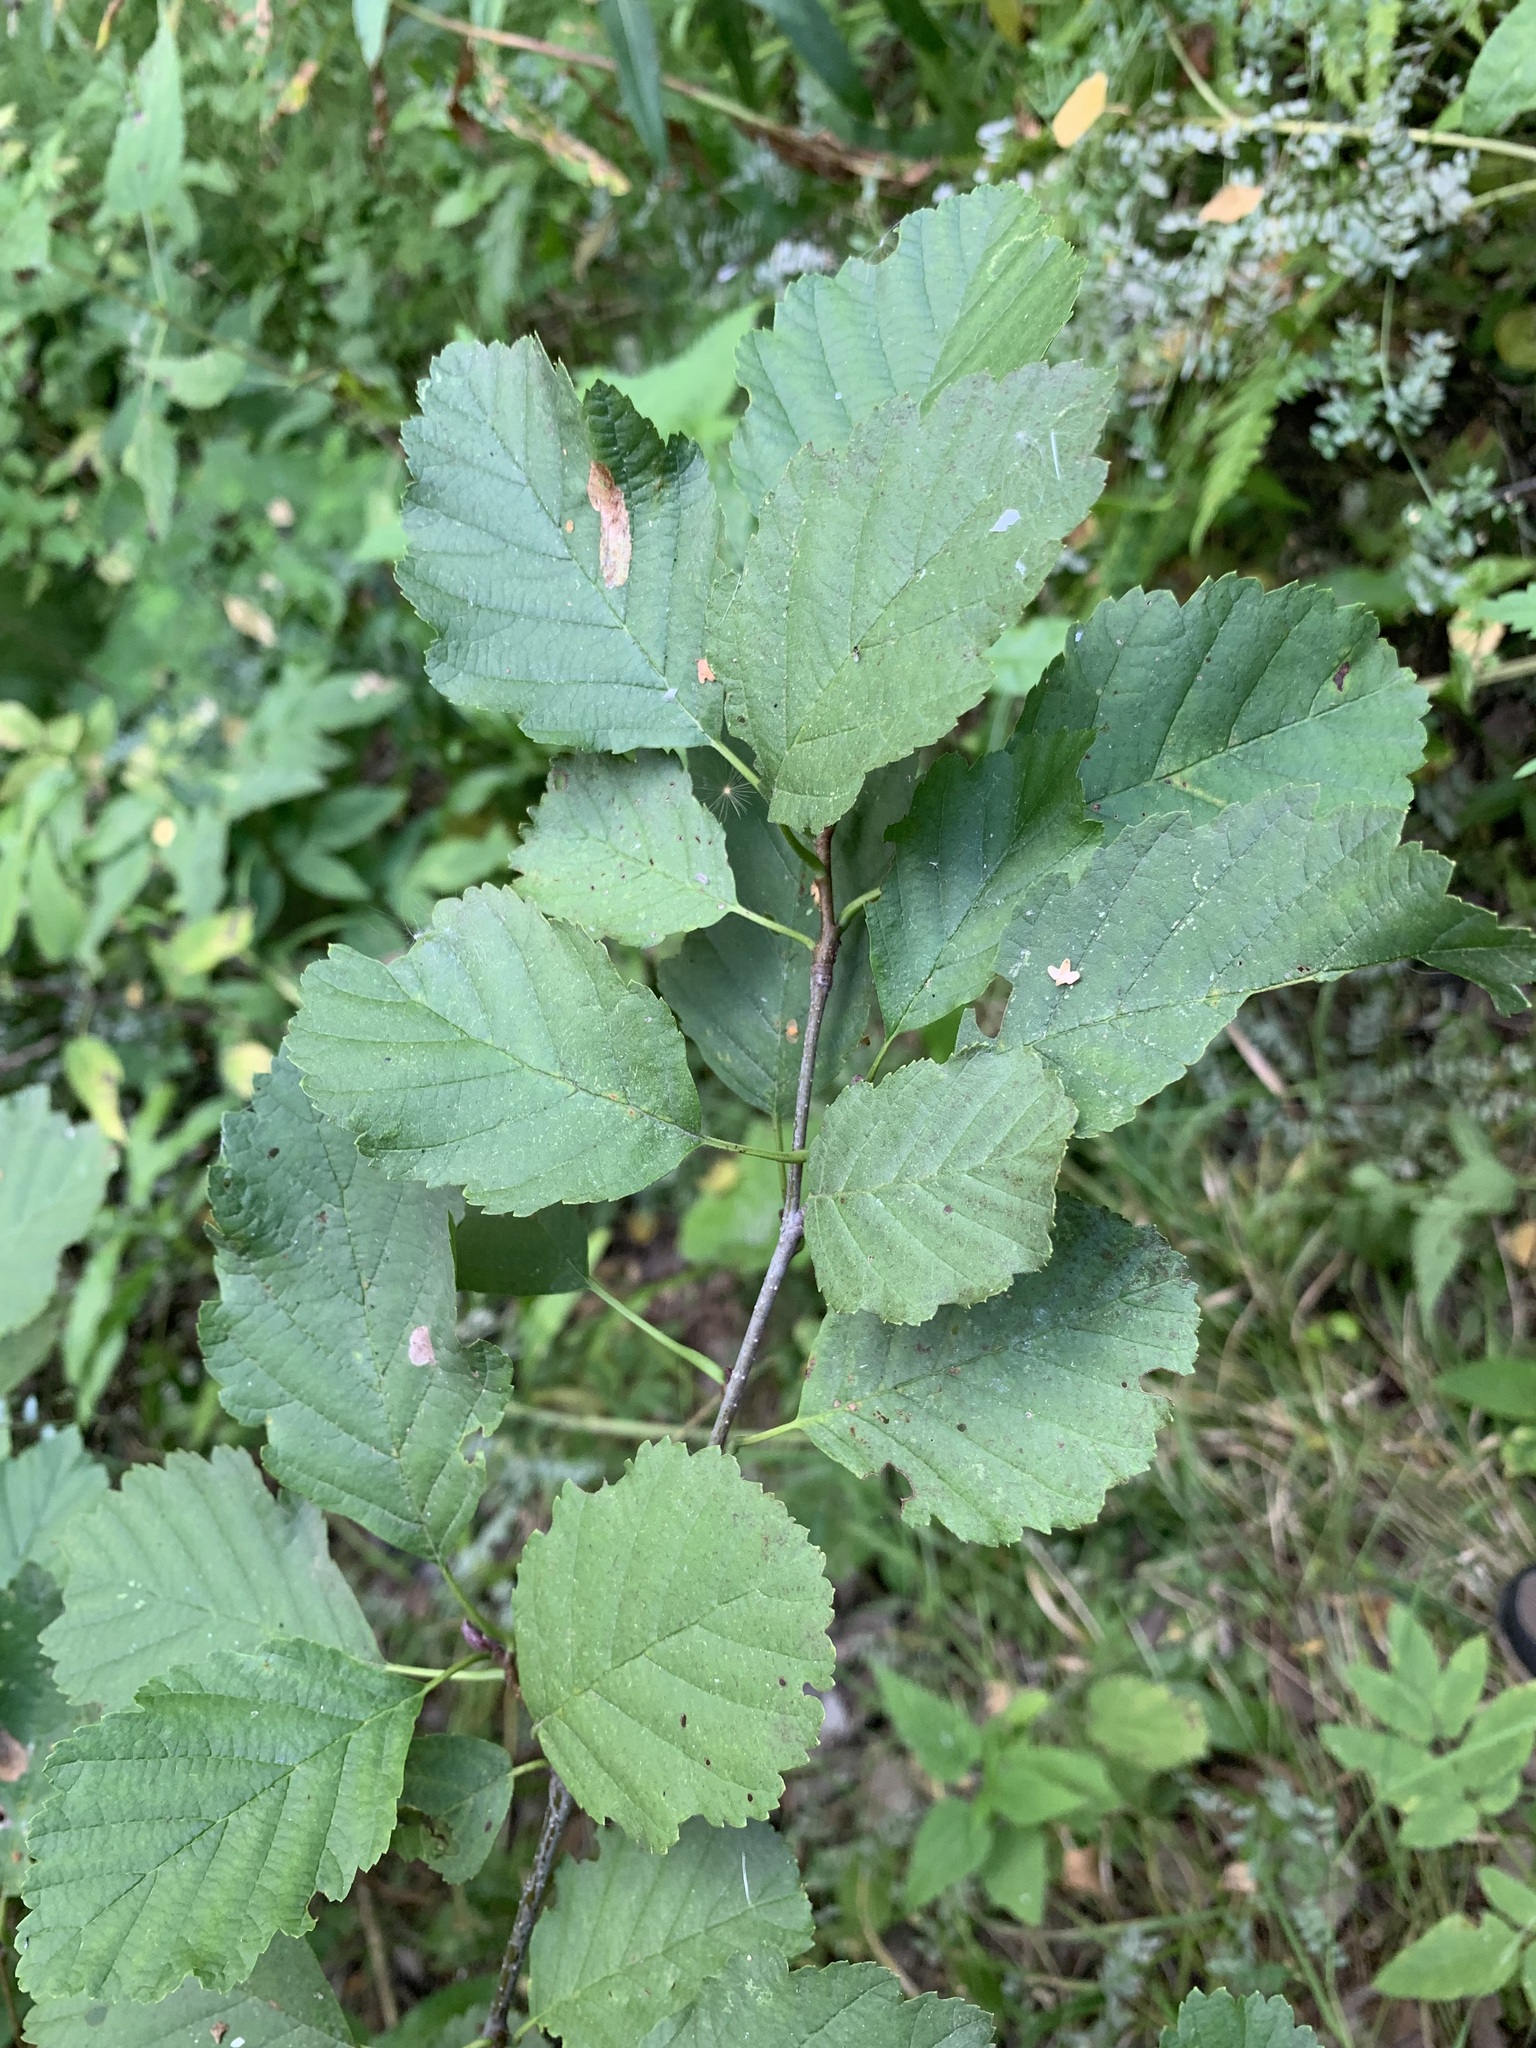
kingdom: Plantae
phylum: Tracheophyta
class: Magnoliopsida
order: Fagales
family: Betulaceae
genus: Alnus
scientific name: Alnus incana
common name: Grey alder
